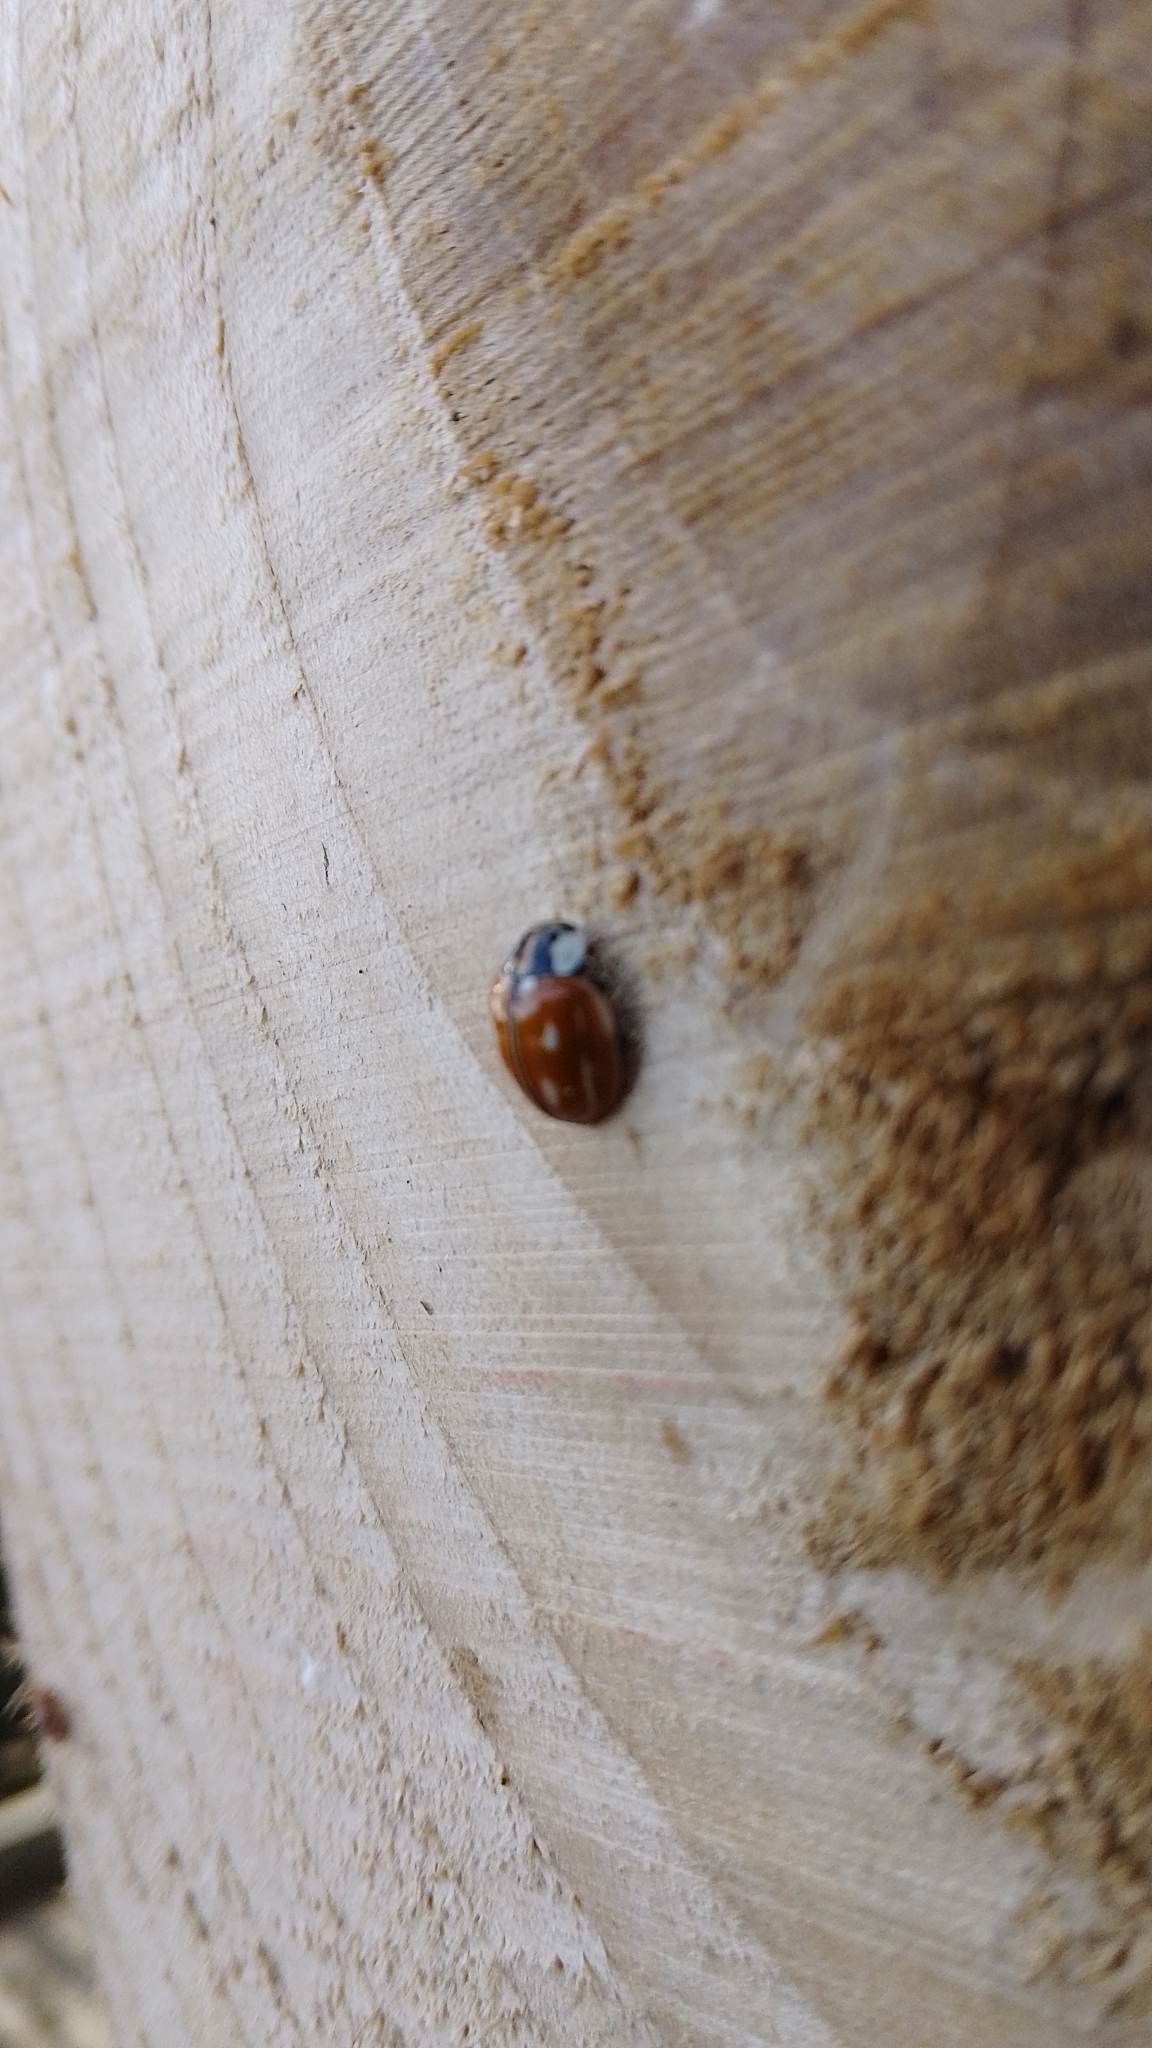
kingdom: Animalia
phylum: Arthropoda
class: Insecta
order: Coleoptera
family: Coccinellidae
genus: Myzia
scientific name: Myzia oblongoguttata
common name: Striped ladybird
